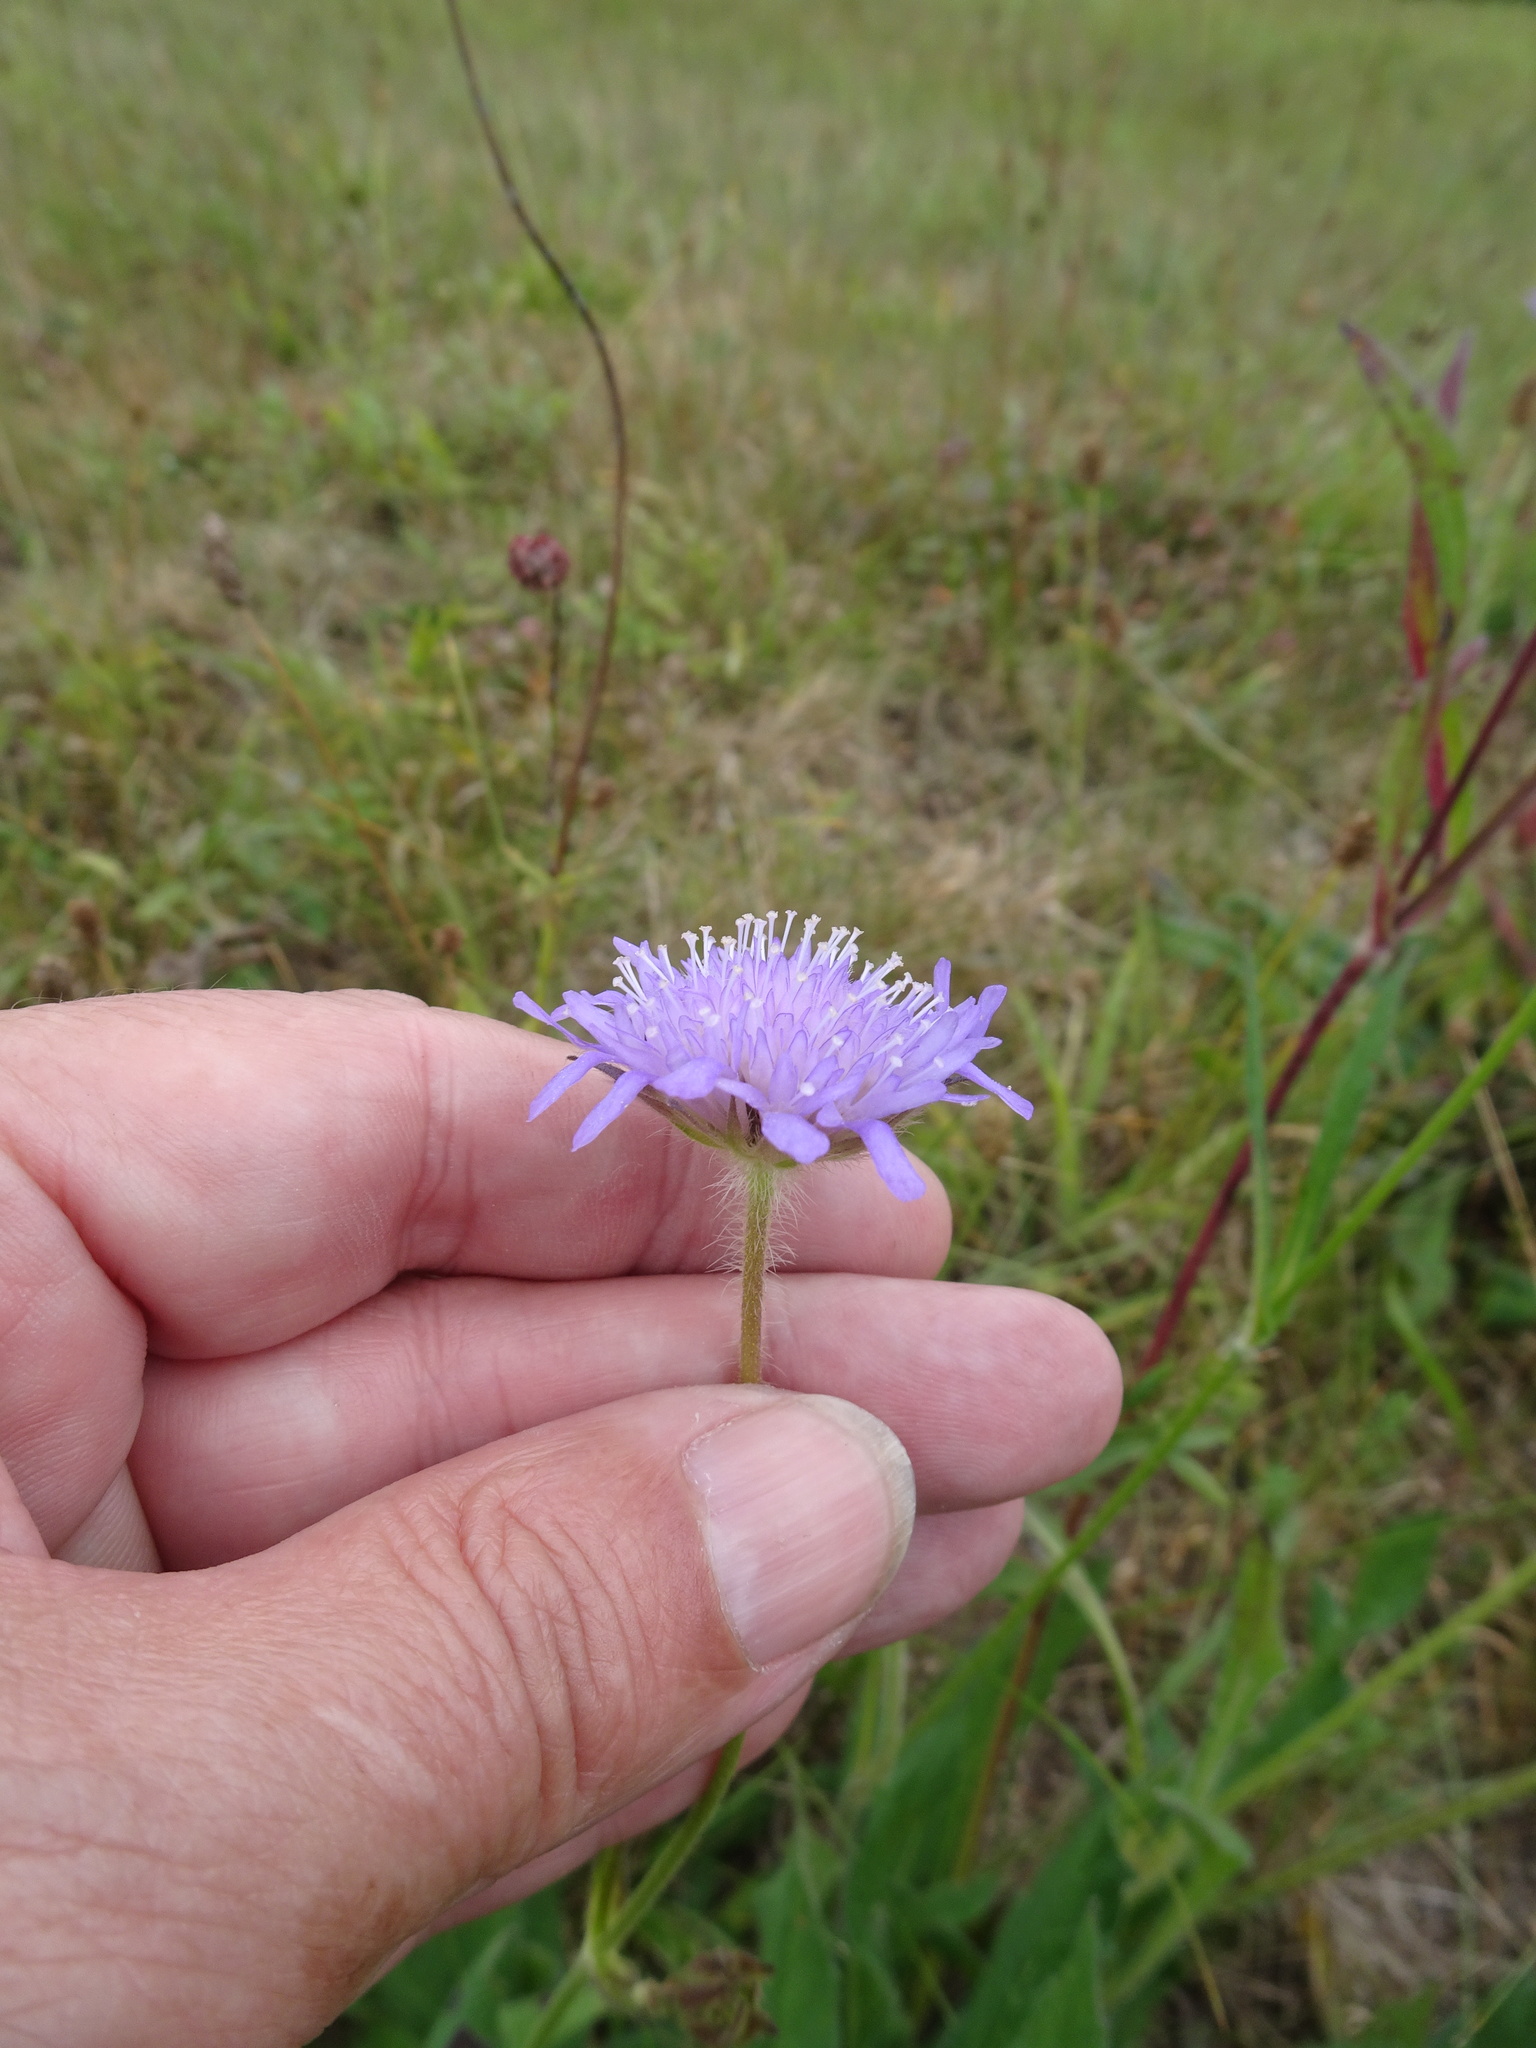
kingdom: Plantae
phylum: Tracheophyta
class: Magnoliopsida
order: Dipsacales
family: Caprifoliaceae
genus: Knautia
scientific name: Knautia arvensis
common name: Field scabiosa
